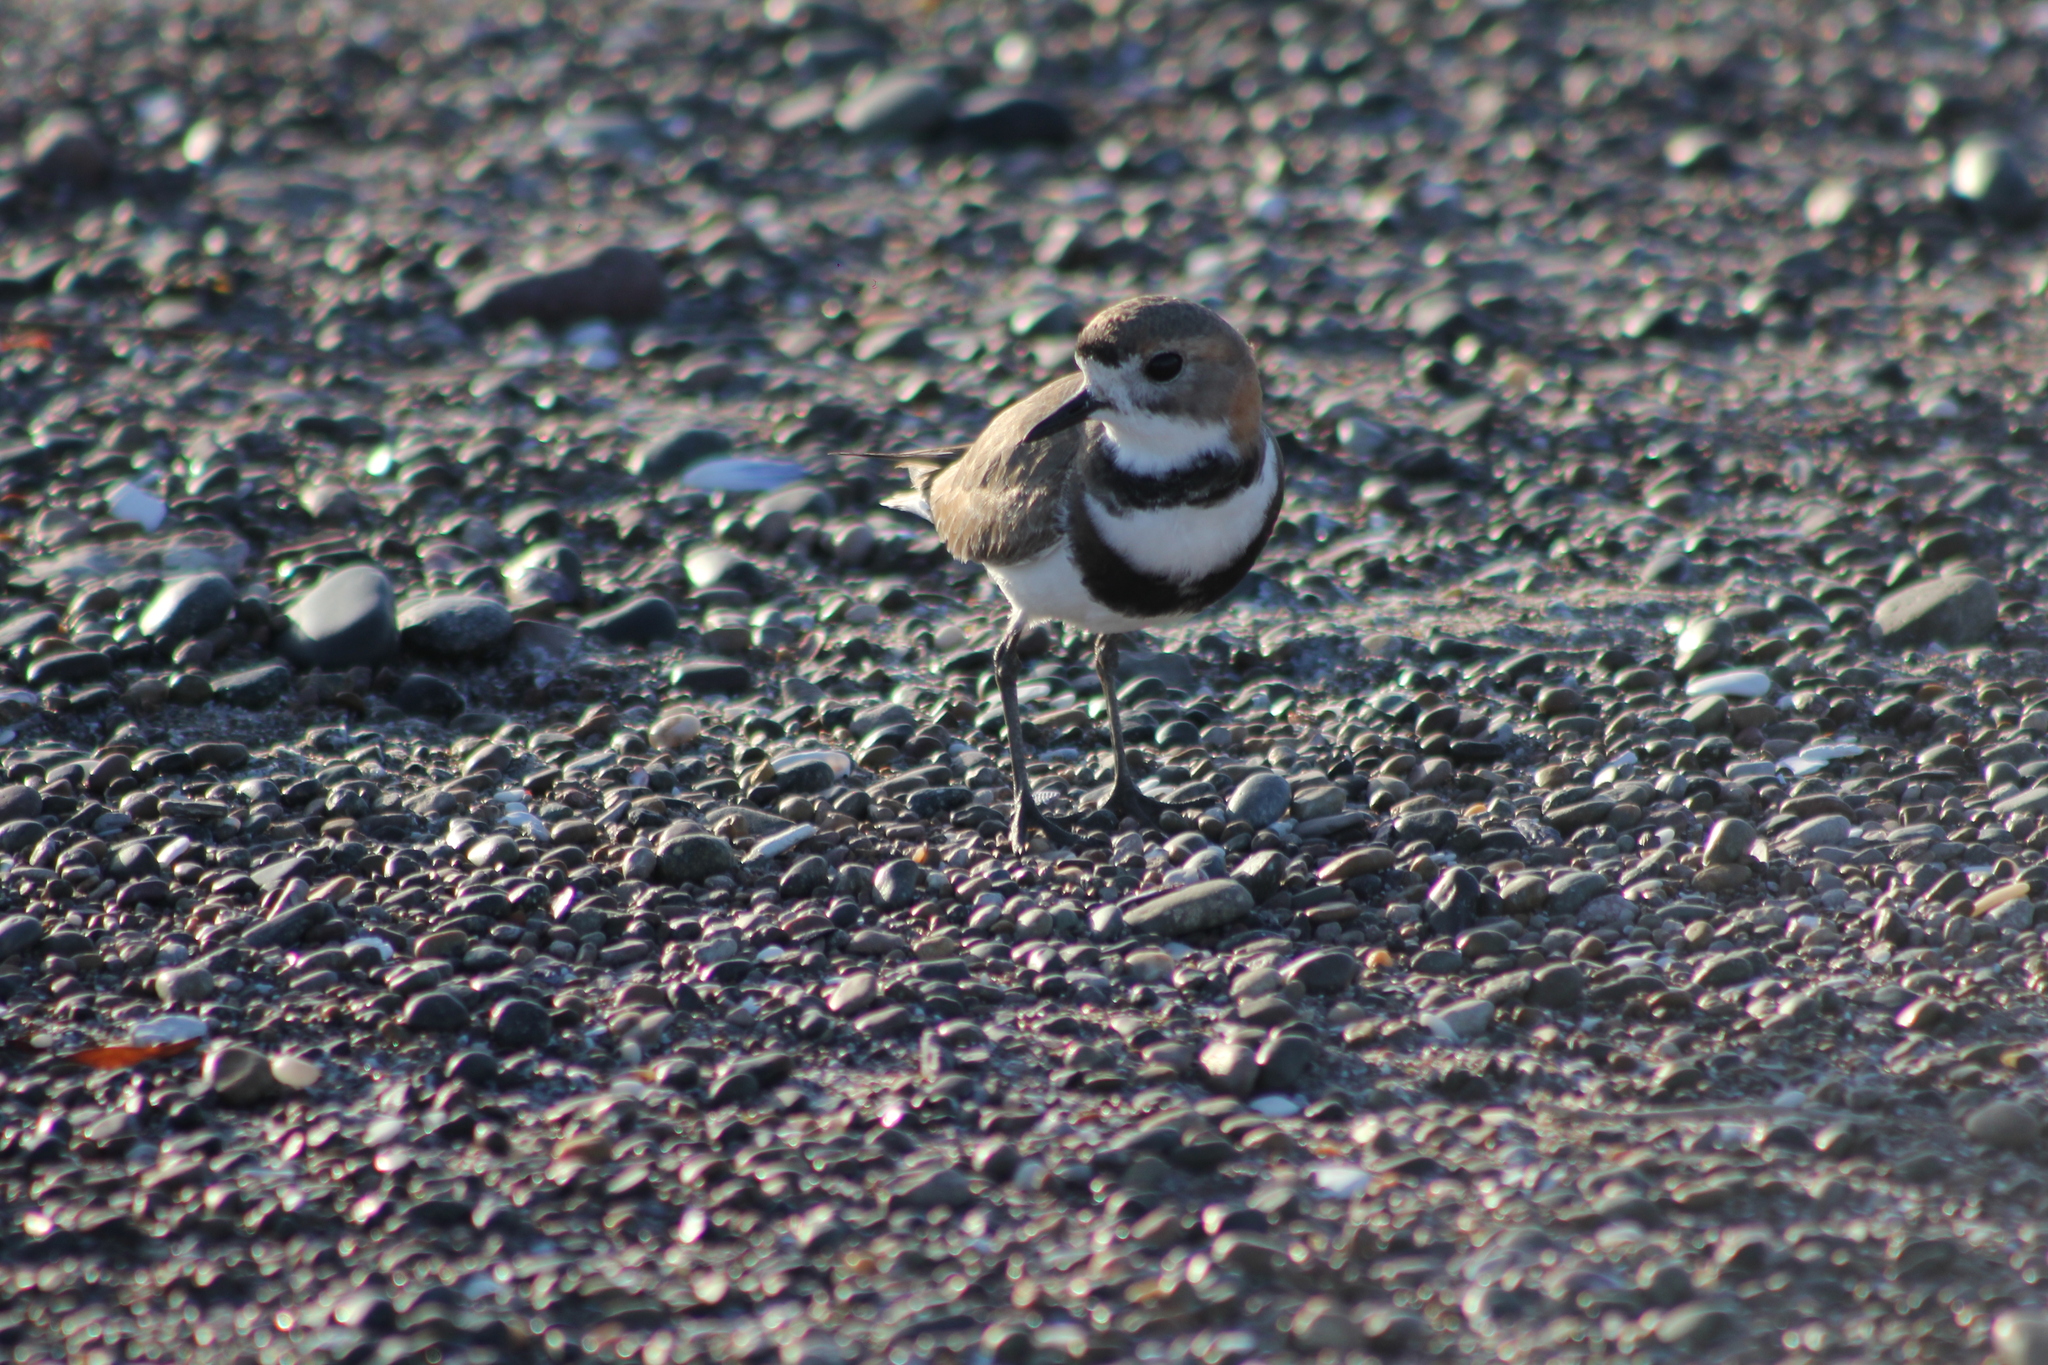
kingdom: Animalia
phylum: Chordata
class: Aves
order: Charadriiformes
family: Charadriidae
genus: Anarhynchus
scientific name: Anarhynchus
